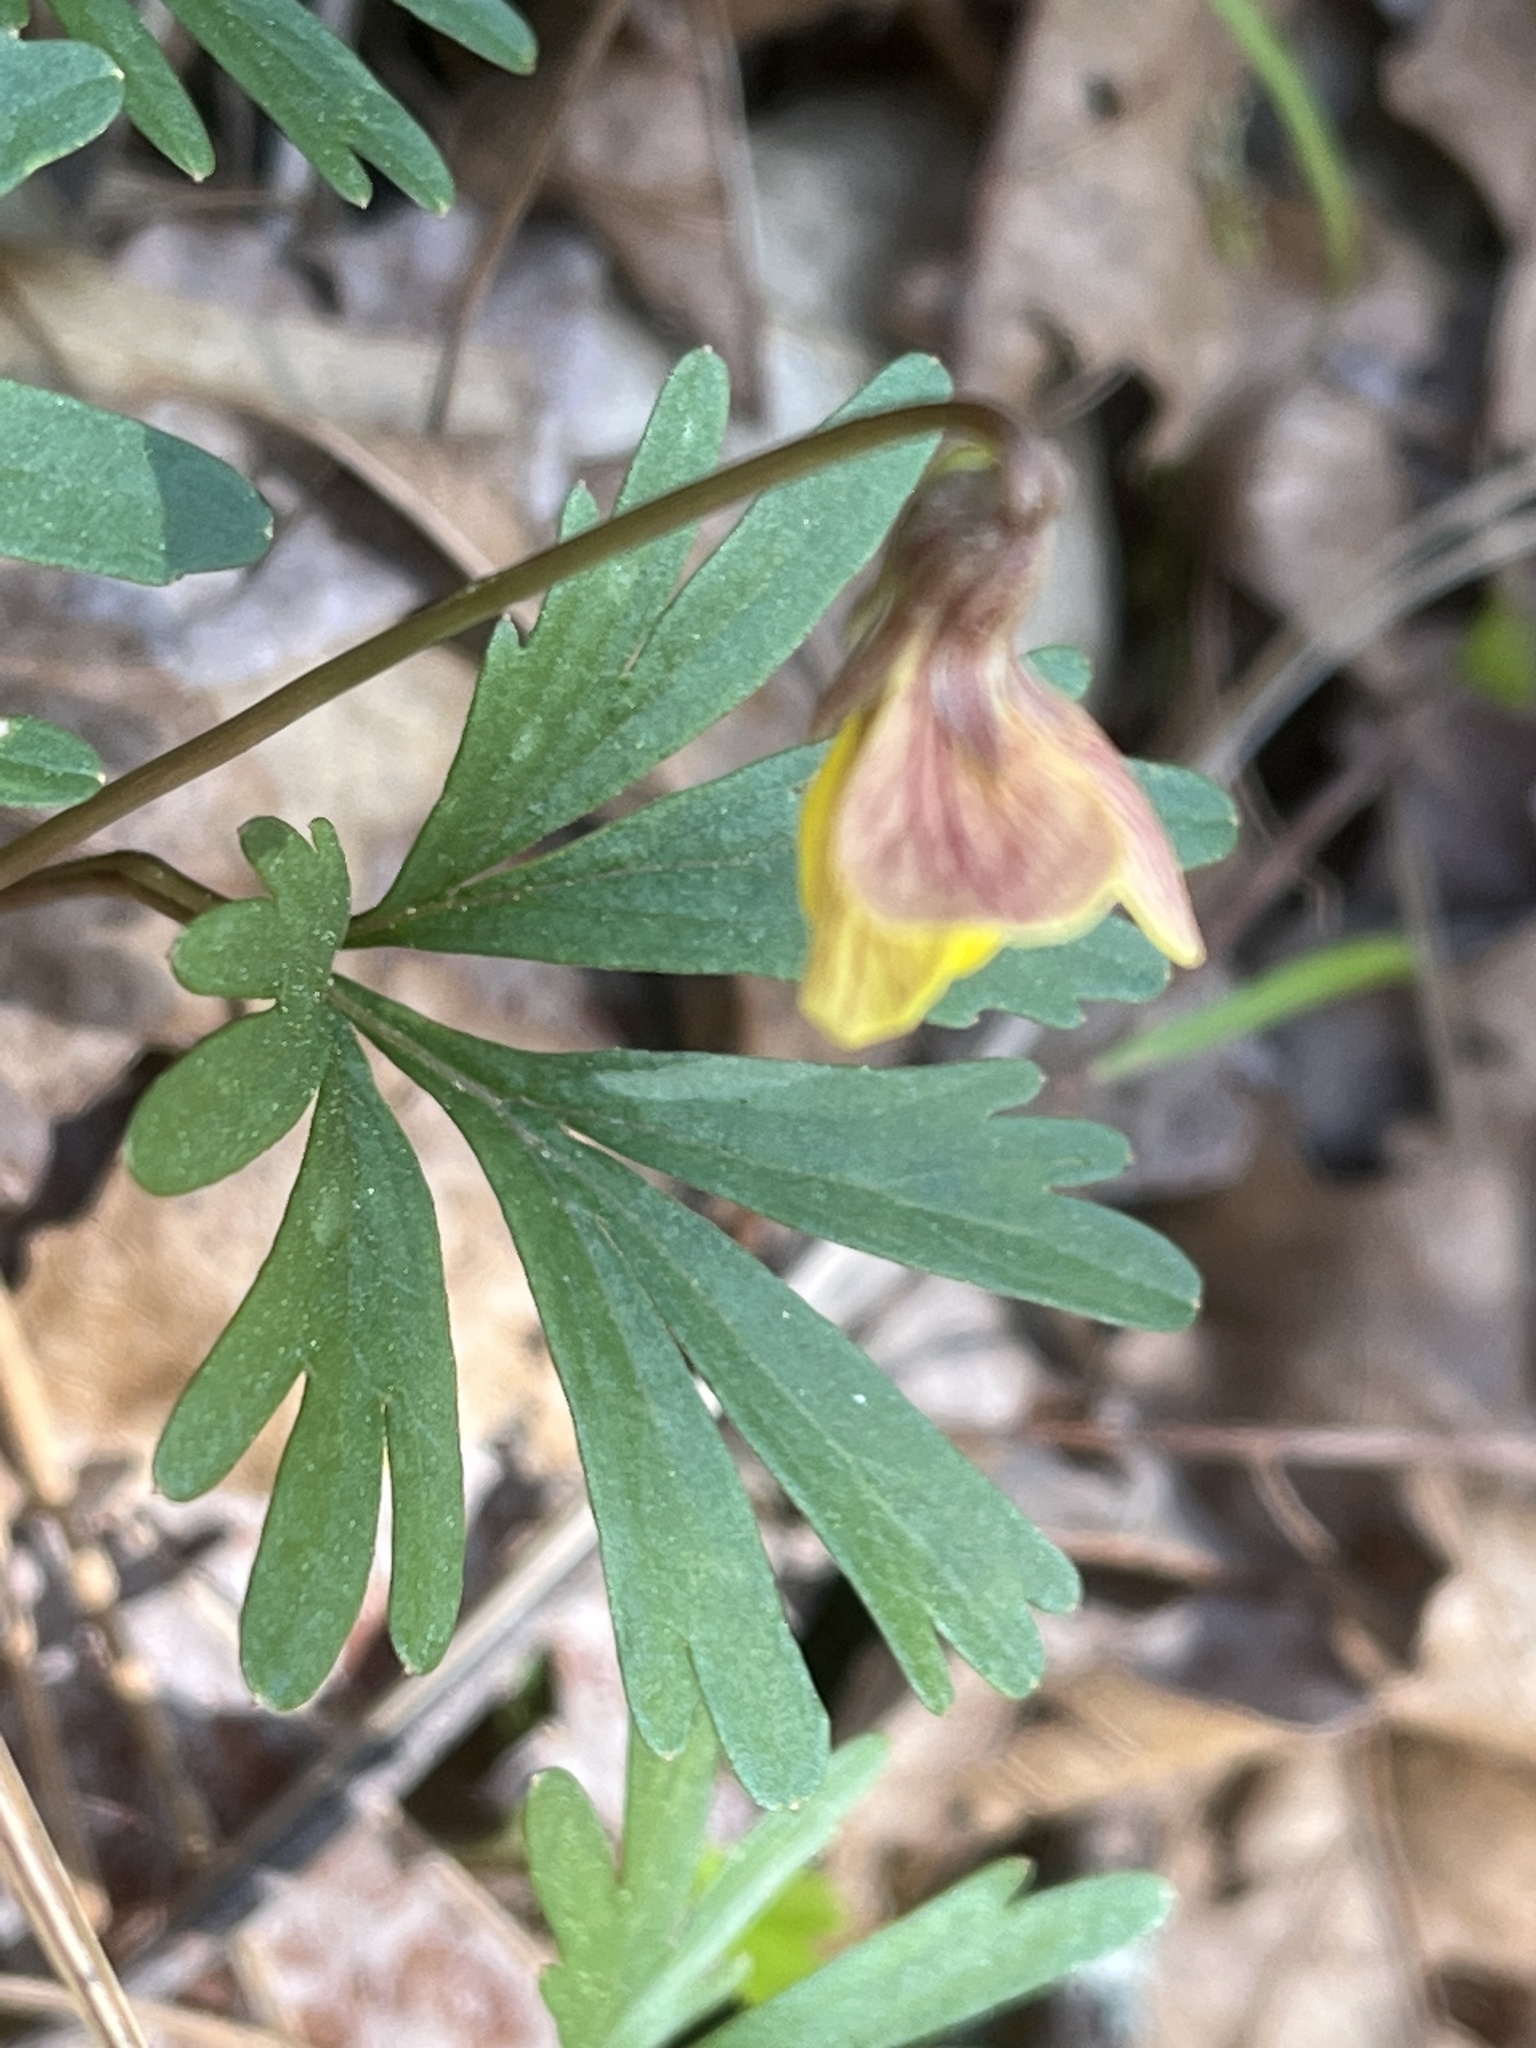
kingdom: Plantae
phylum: Tracheophyta
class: Magnoliopsida
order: Malpighiales
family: Violaceae
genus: Viola
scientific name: Viola sheltonii
